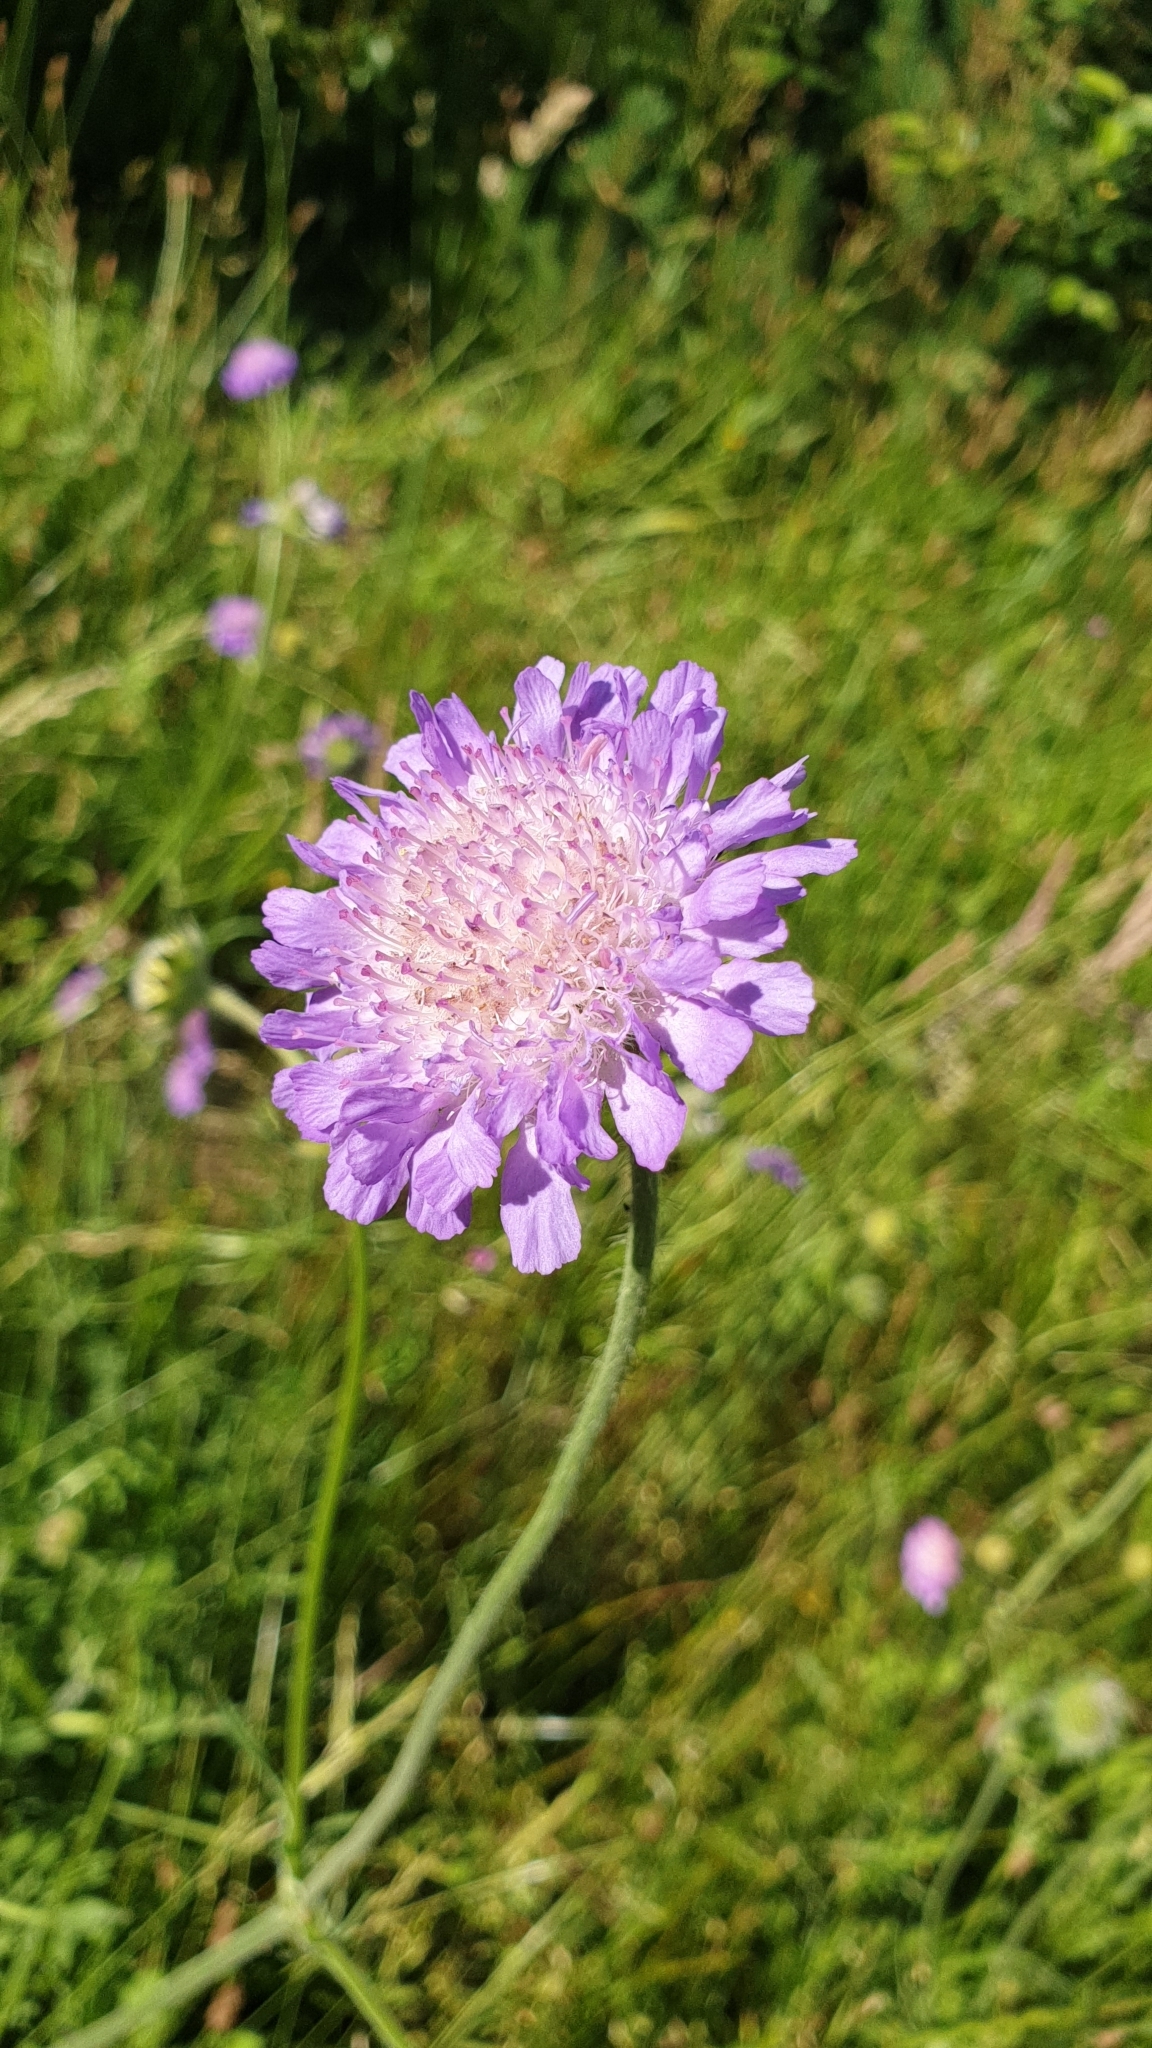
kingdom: Plantae
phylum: Tracheophyta
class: Magnoliopsida
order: Dipsacales
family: Caprifoliaceae
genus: Knautia
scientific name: Knautia arvensis
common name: Field scabiosa
